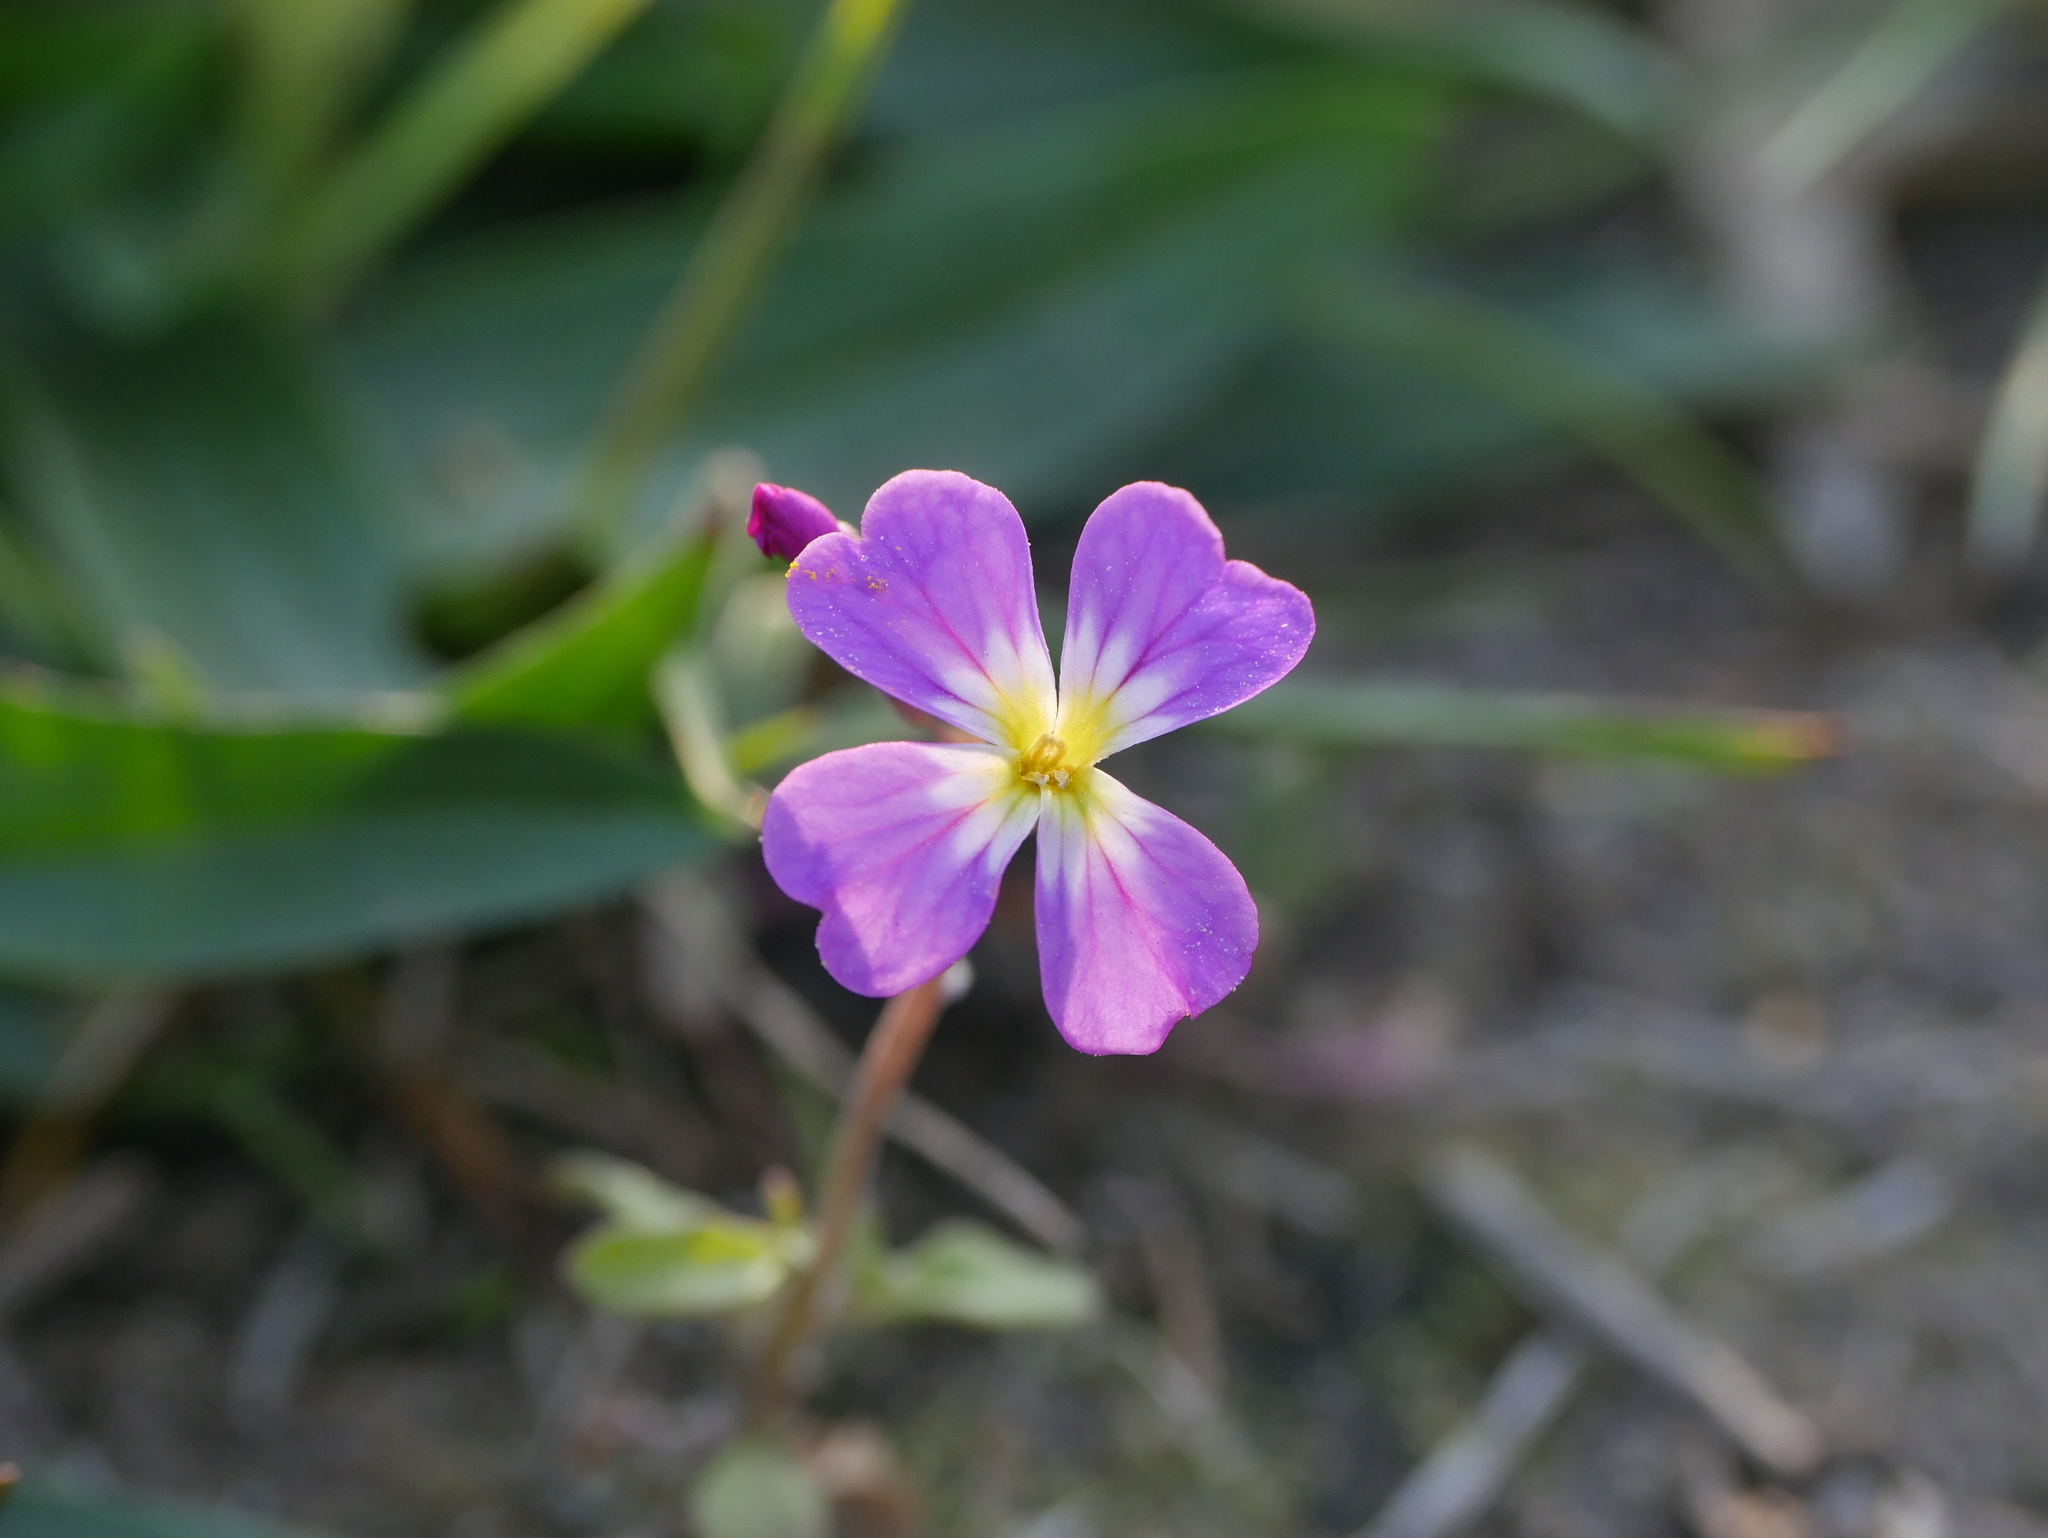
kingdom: Plantae
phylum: Tracheophyta
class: Magnoliopsida
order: Brassicales
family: Brassicaceae
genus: Malcolmia
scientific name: Malcolmia maritima
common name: Virginia stock
